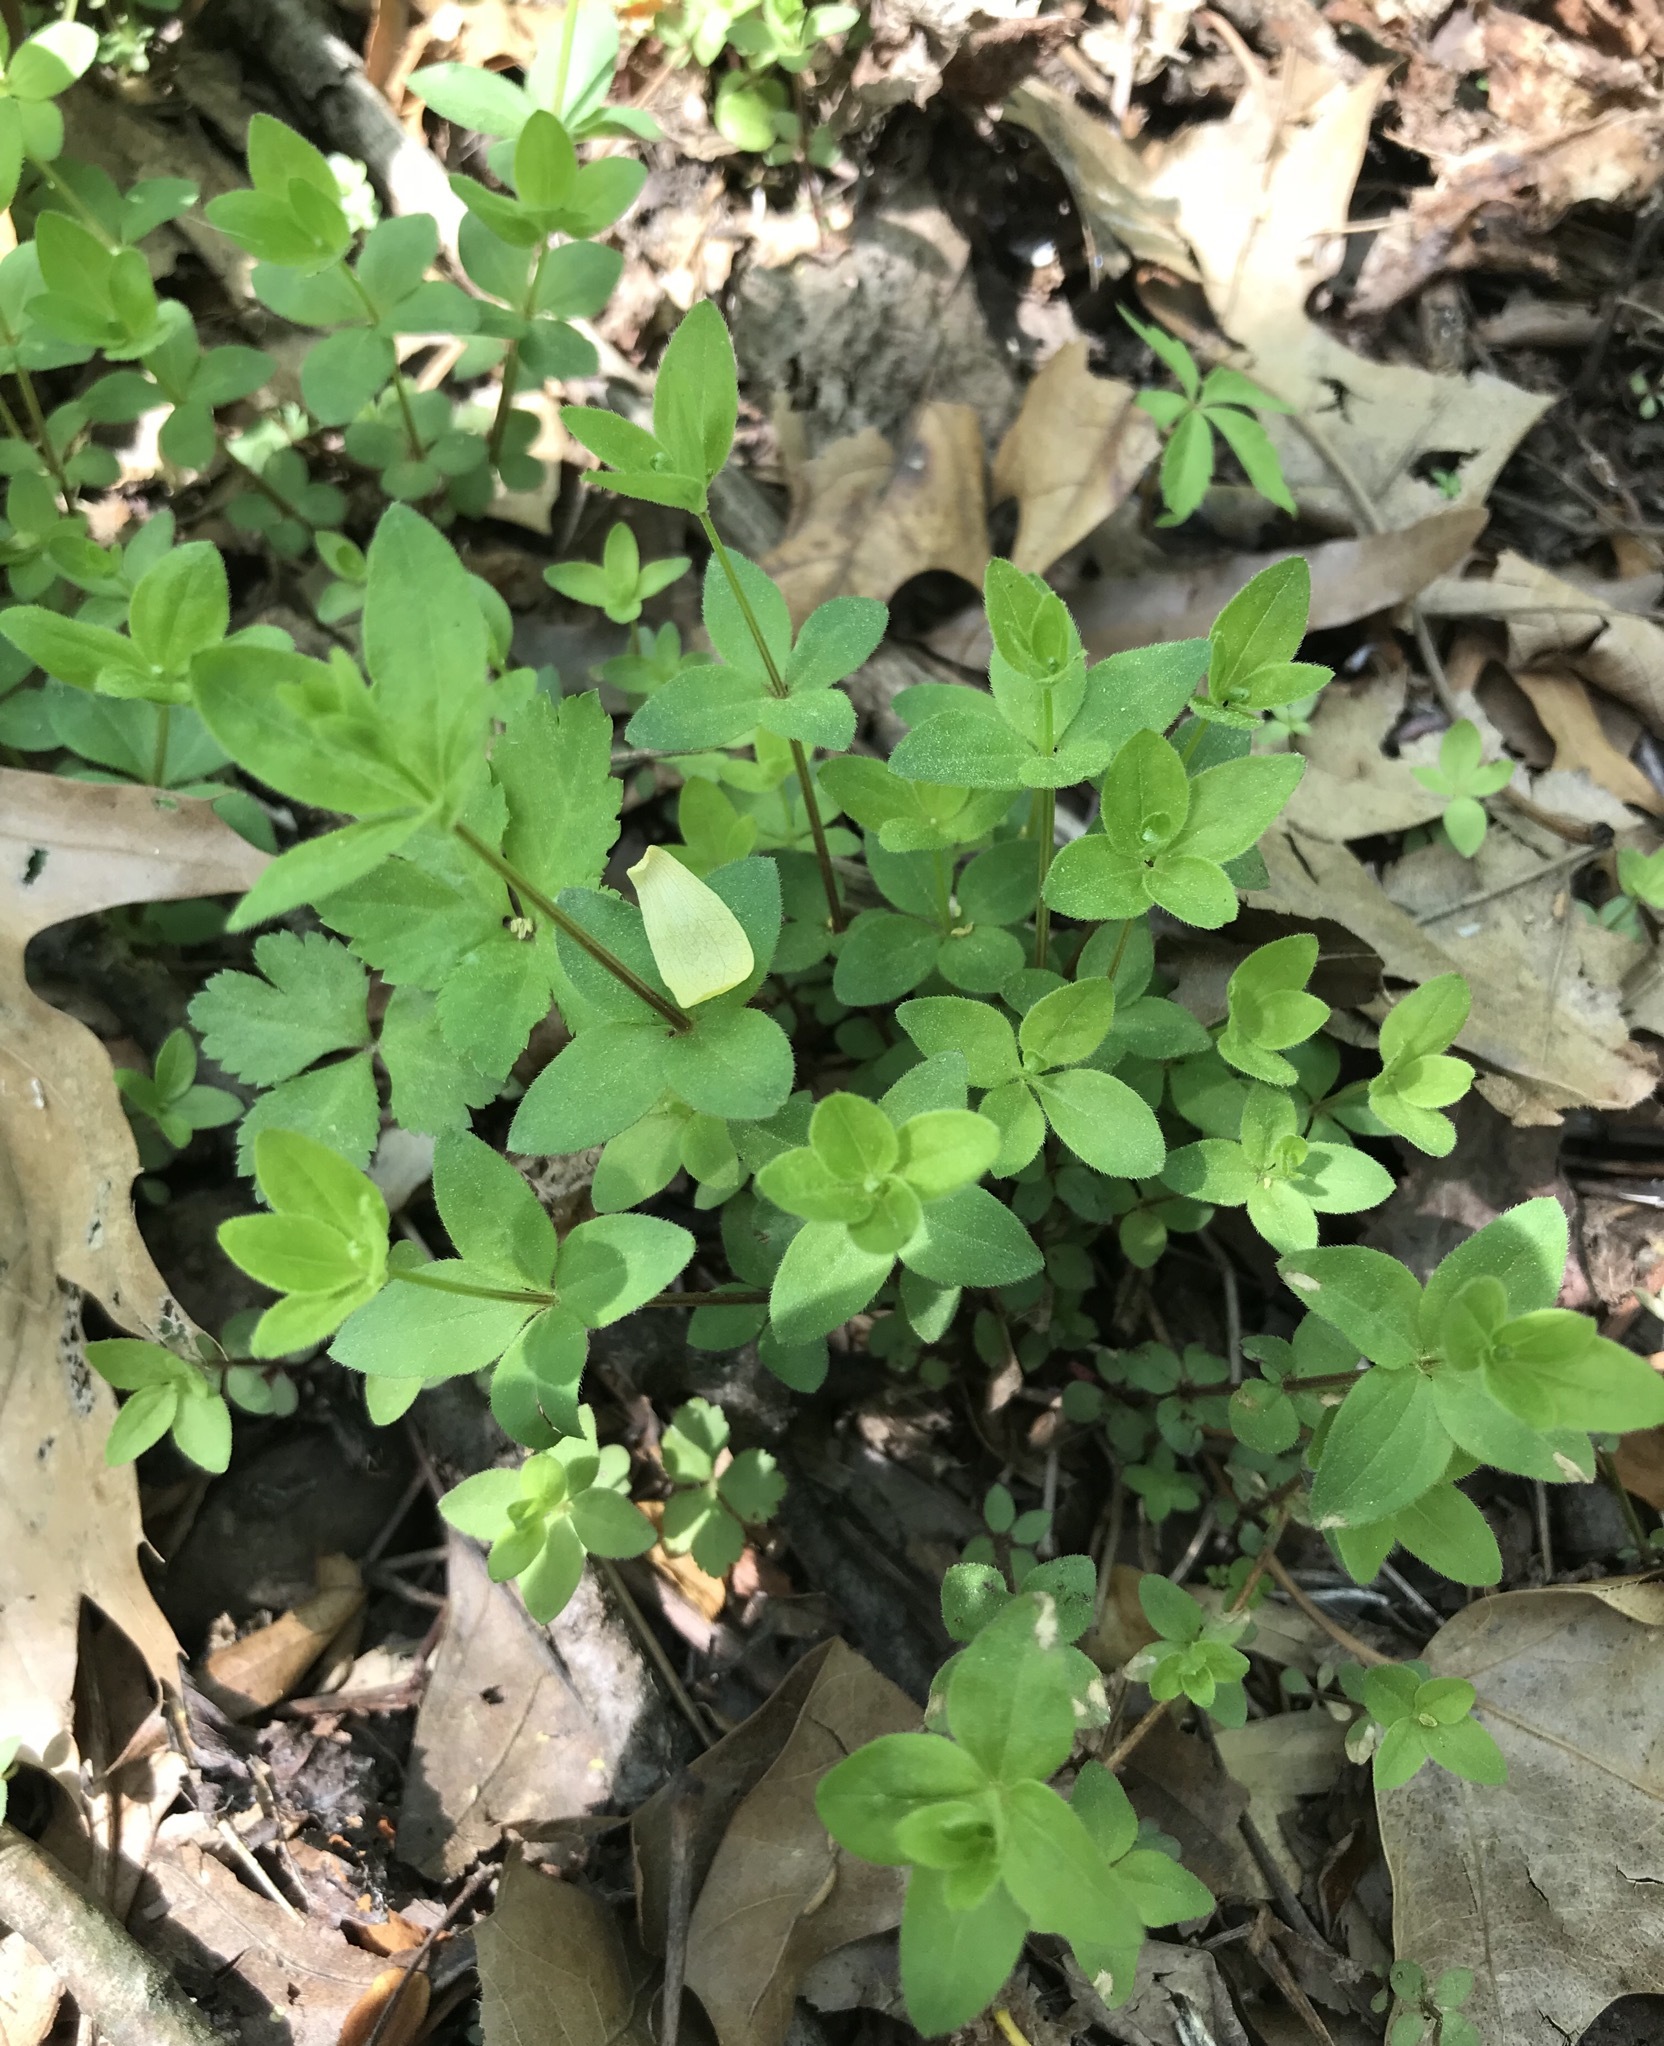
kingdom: Plantae
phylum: Tracheophyta
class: Magnoliopsida
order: Gentianales
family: Rubiaceae
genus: Galium
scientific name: Galium circaezans
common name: Forest bedstraw
